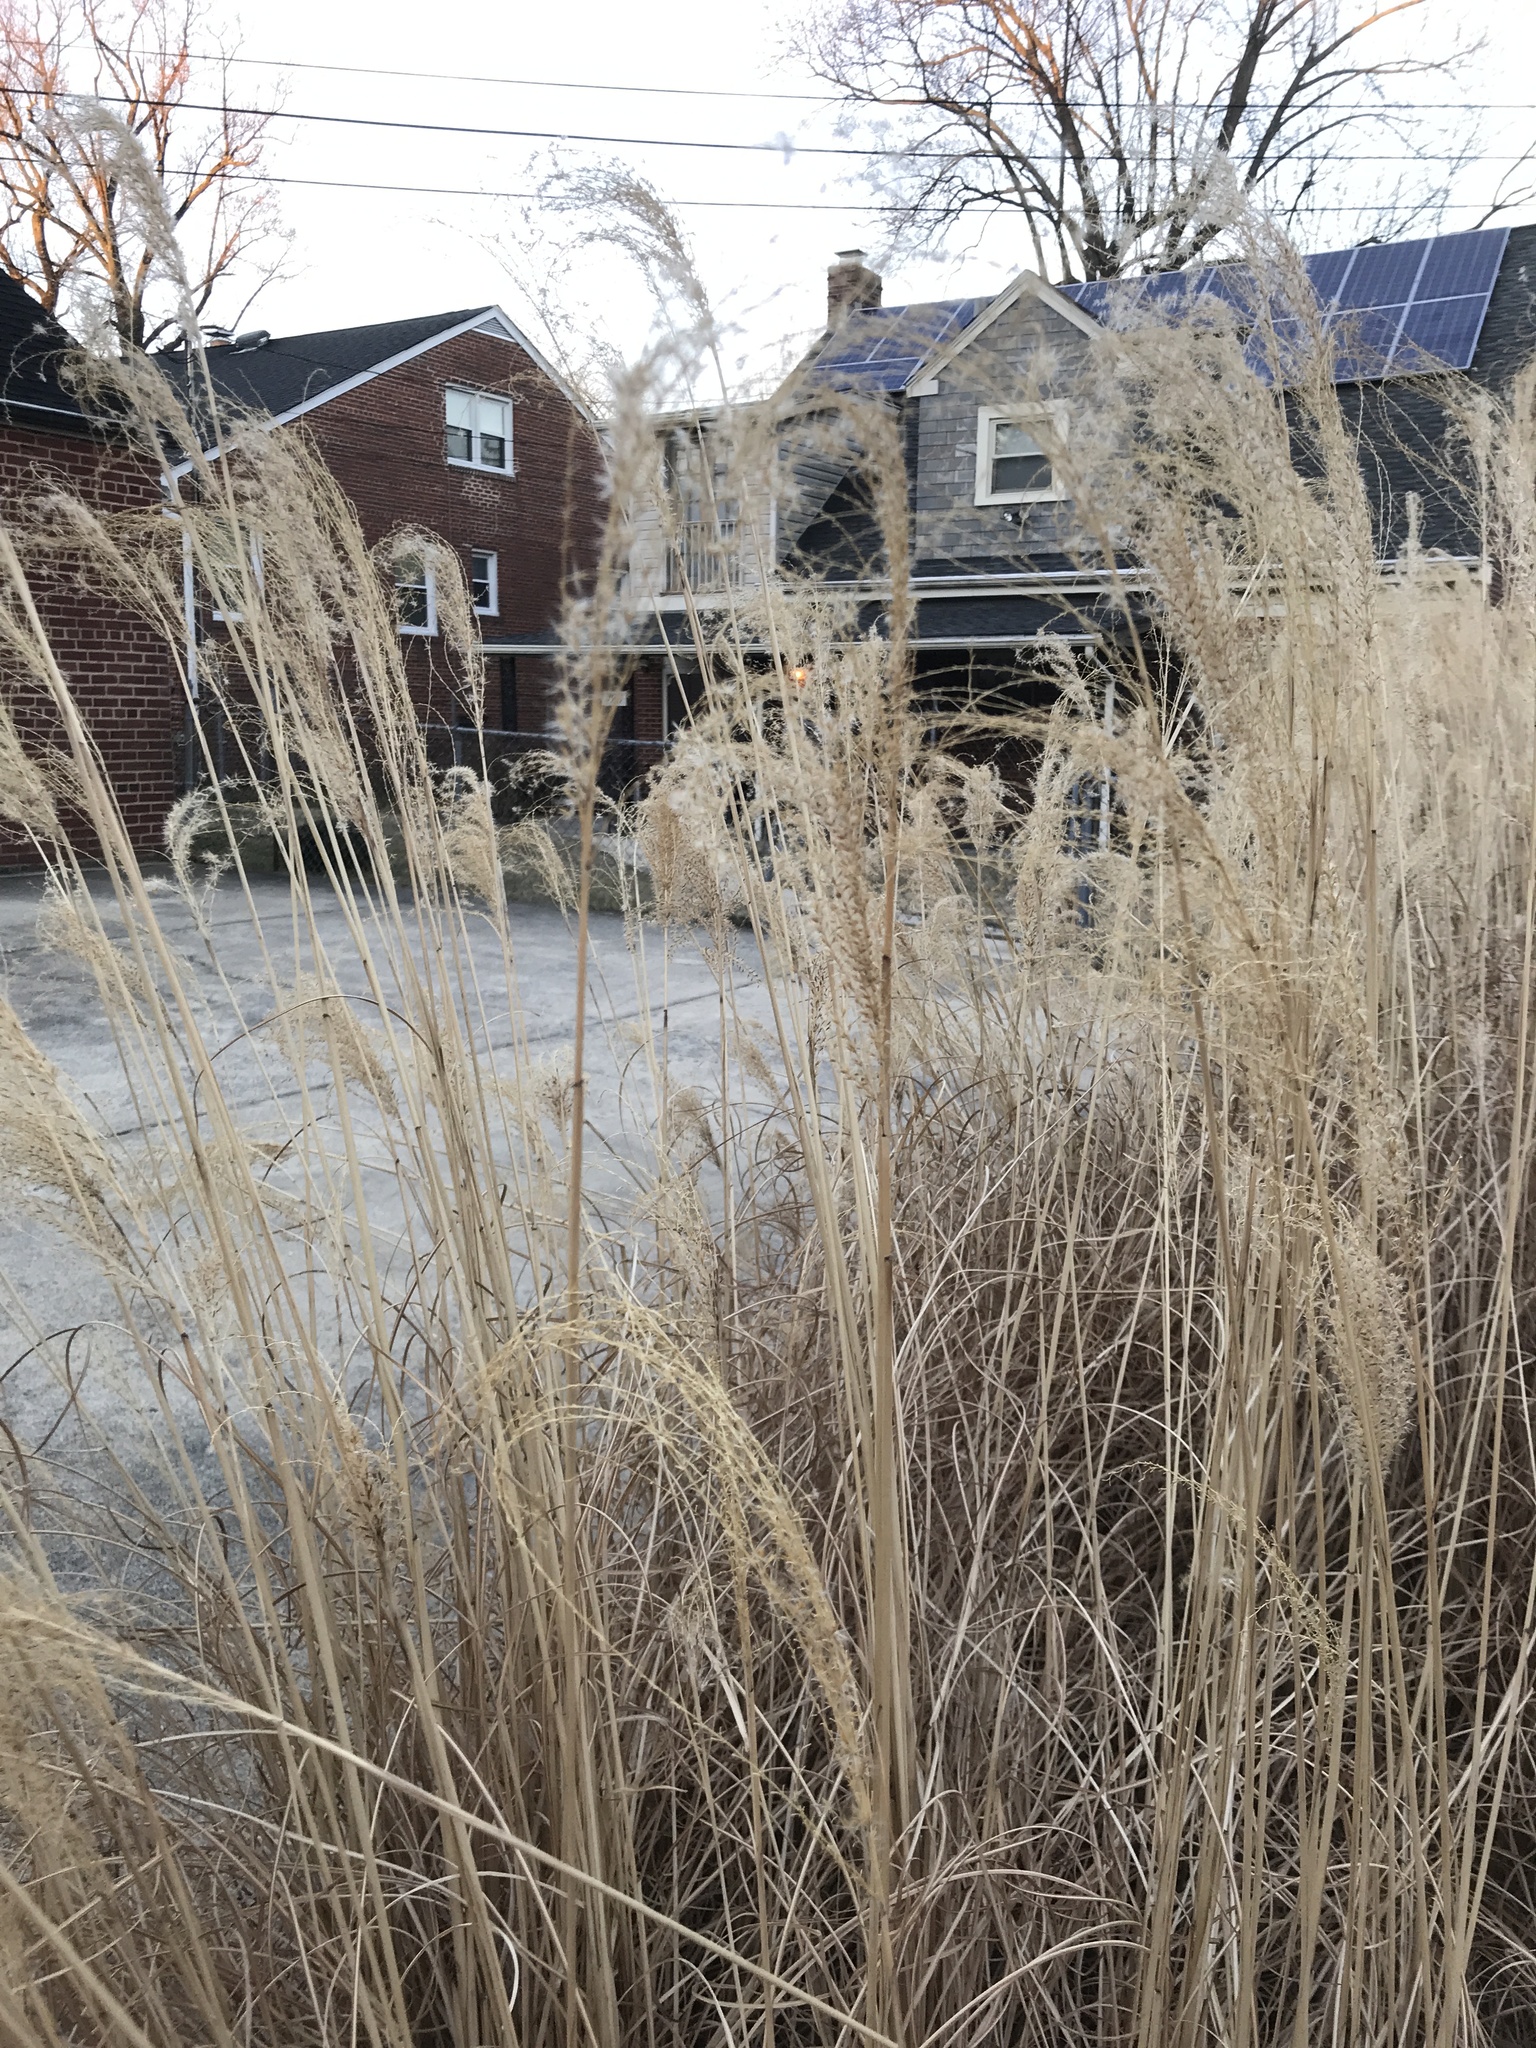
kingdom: Plantae
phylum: Tracheophyta
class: Liliopsida
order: Poales
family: Poaceae
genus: Miscanthus
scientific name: Miscanthus sinensis
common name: Chinese silvergrass
